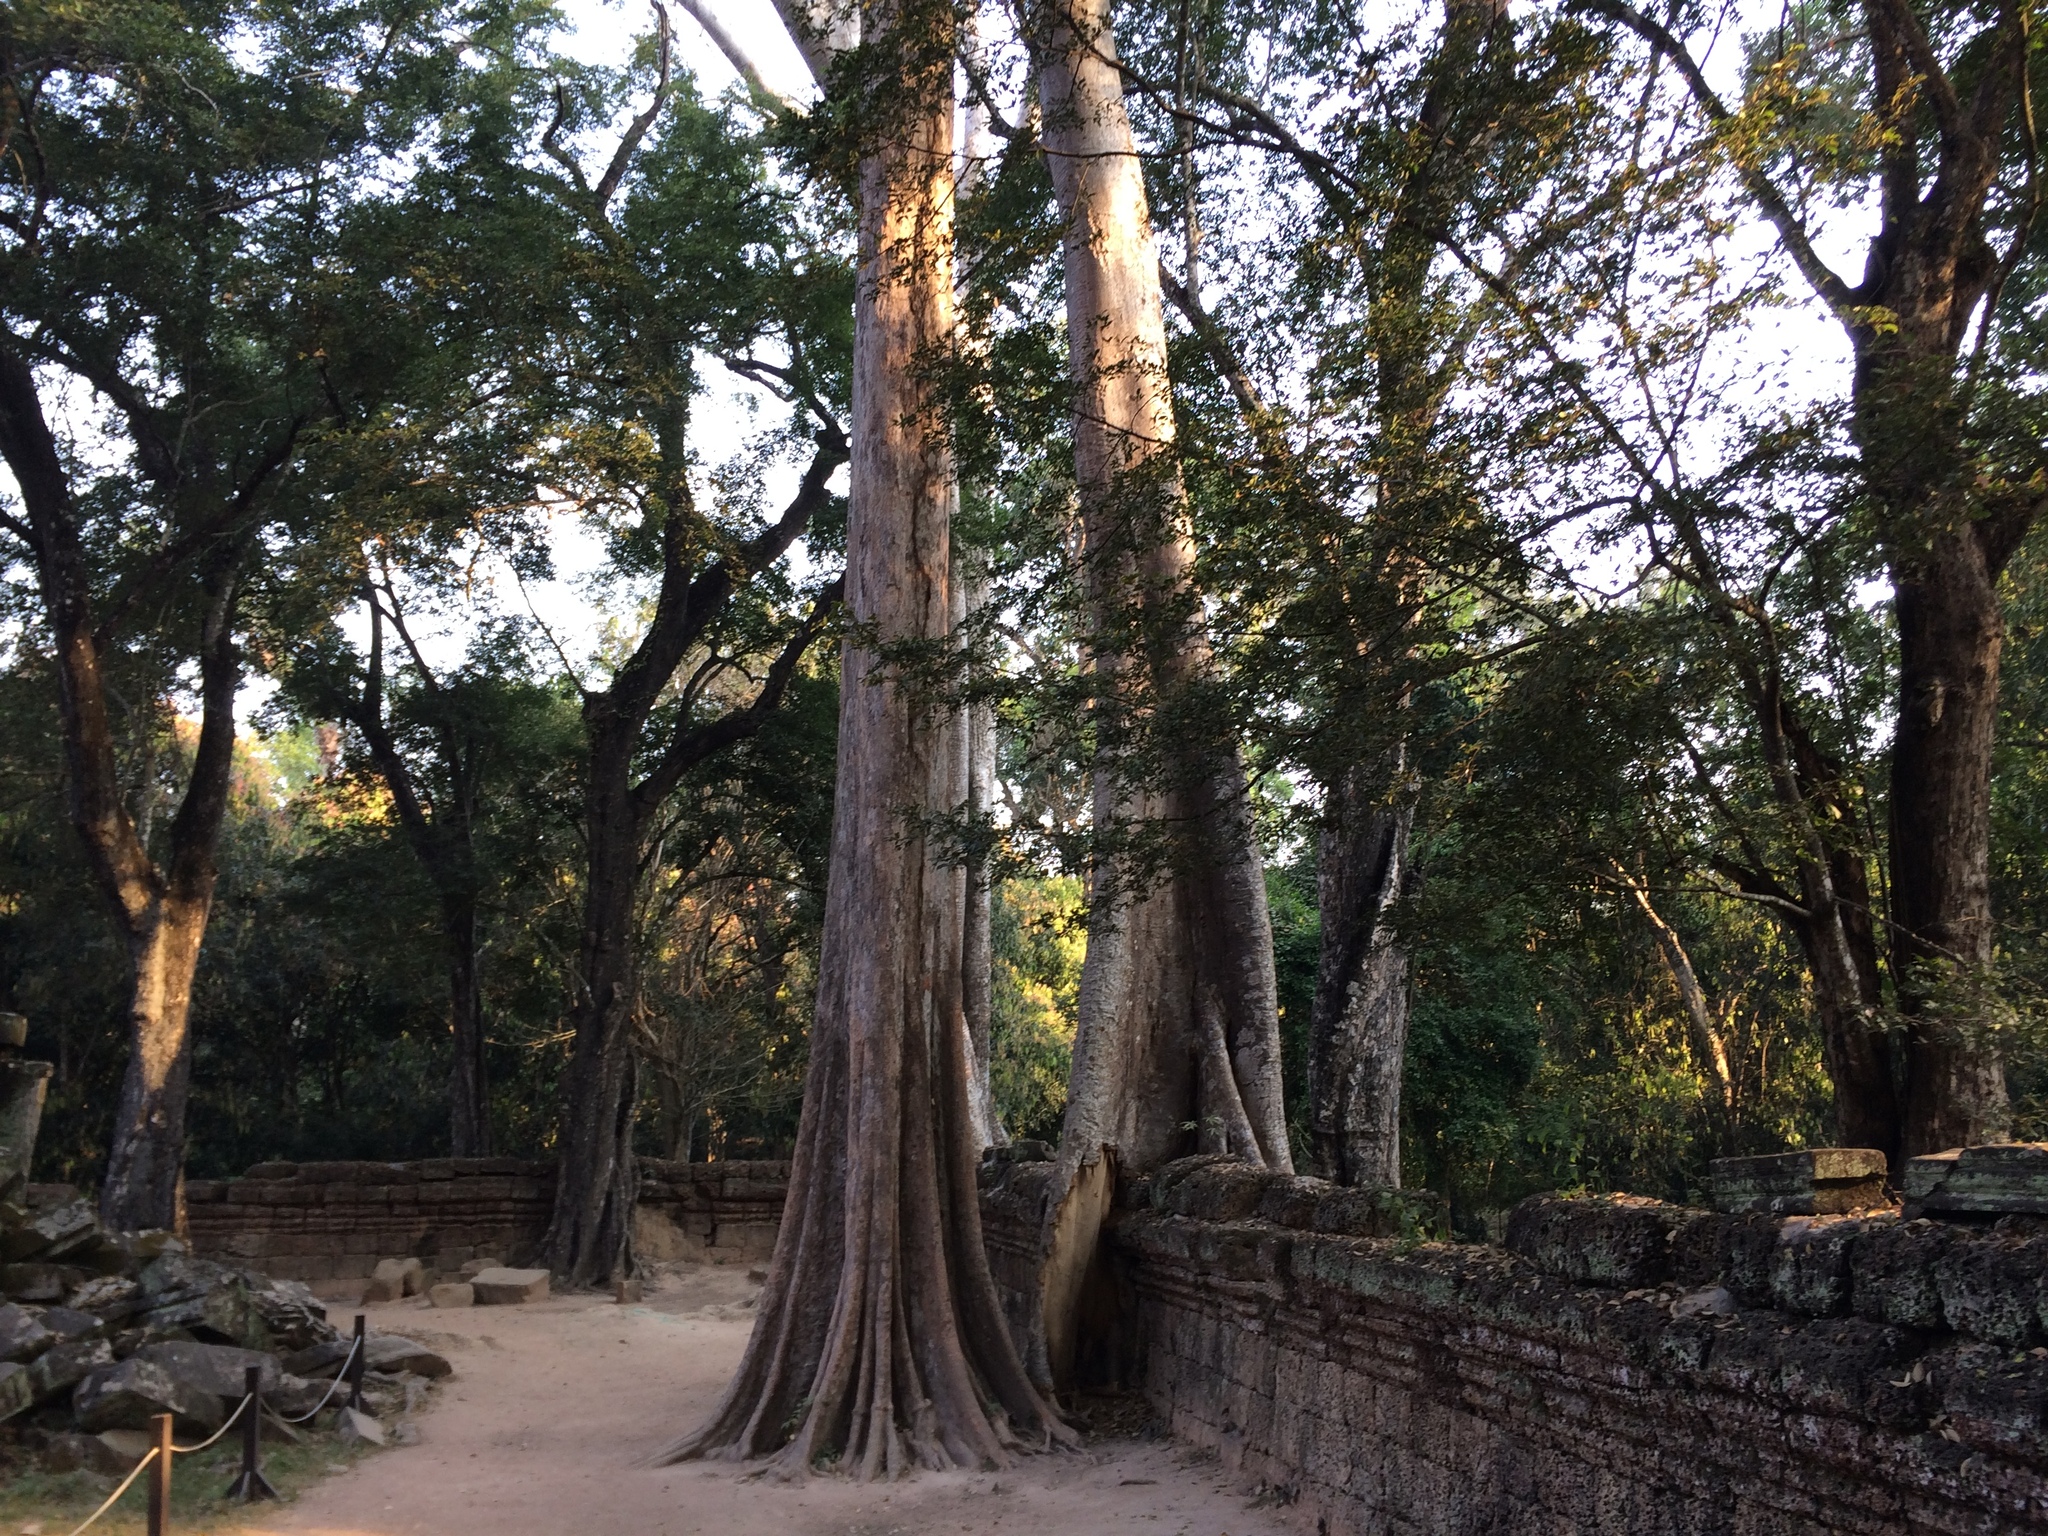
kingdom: Plantae
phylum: Tracheophyta
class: Magnoliopsida
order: Cucurbitales
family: Tetramelaceae
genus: Tetrameles
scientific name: Tetrameles nudiflora
